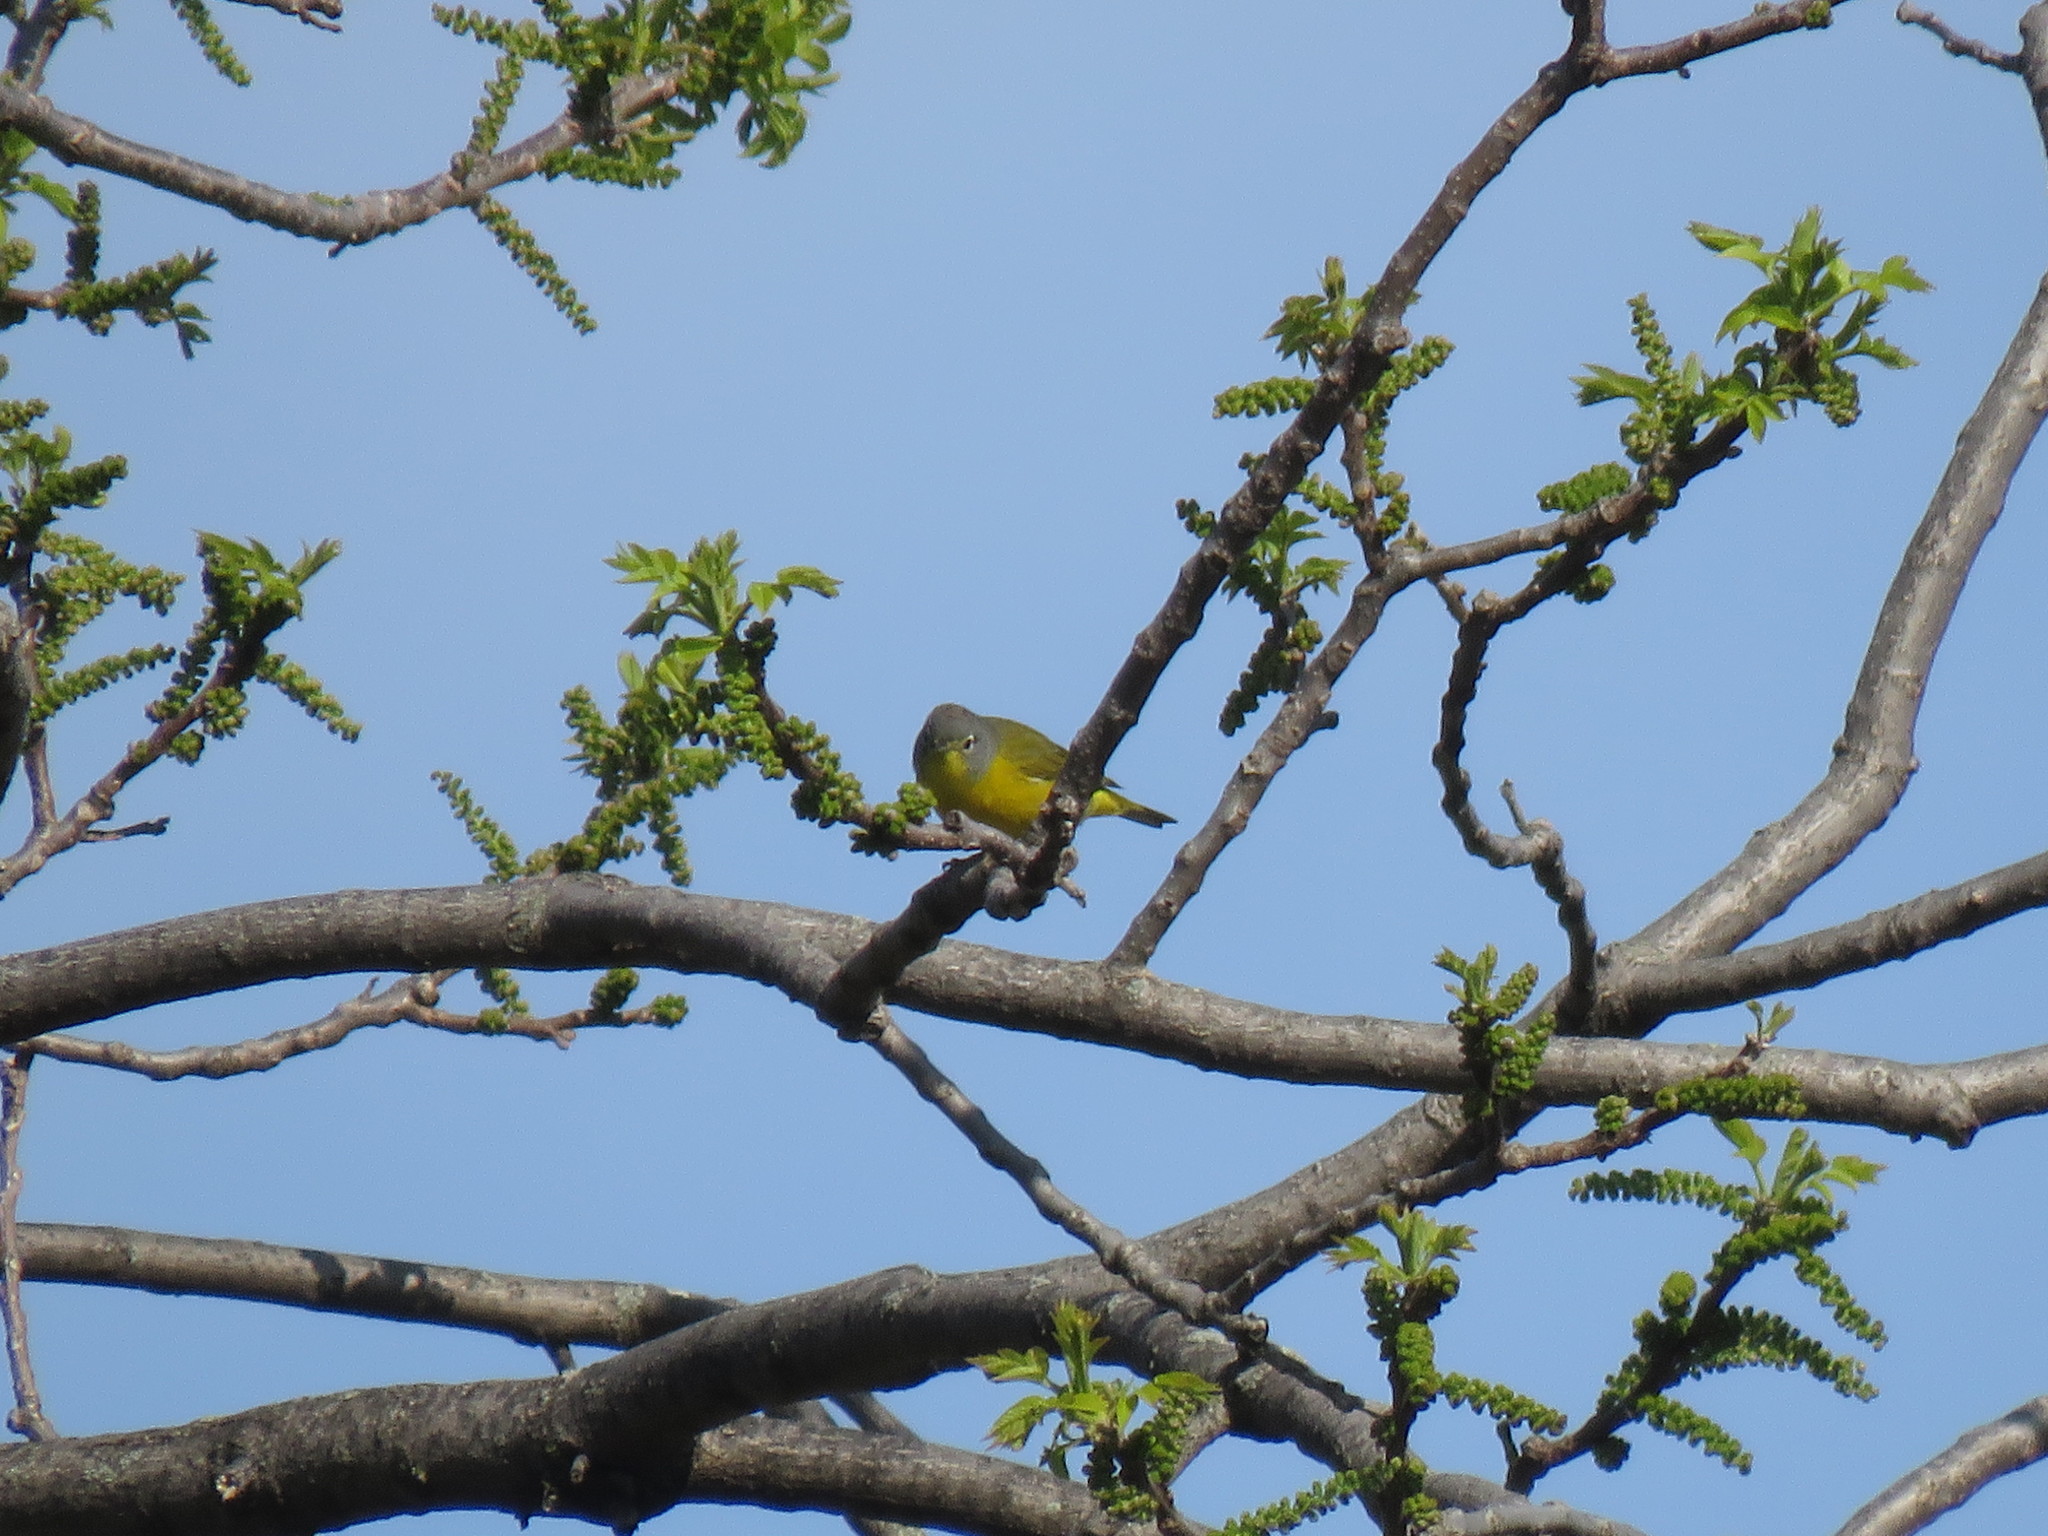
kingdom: Animalia
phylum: Chordata
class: Aves
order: Passeriformes
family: Parulidae
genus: Leiothlypis
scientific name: Leiothlypis ruficapilla
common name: Nashville warbler
